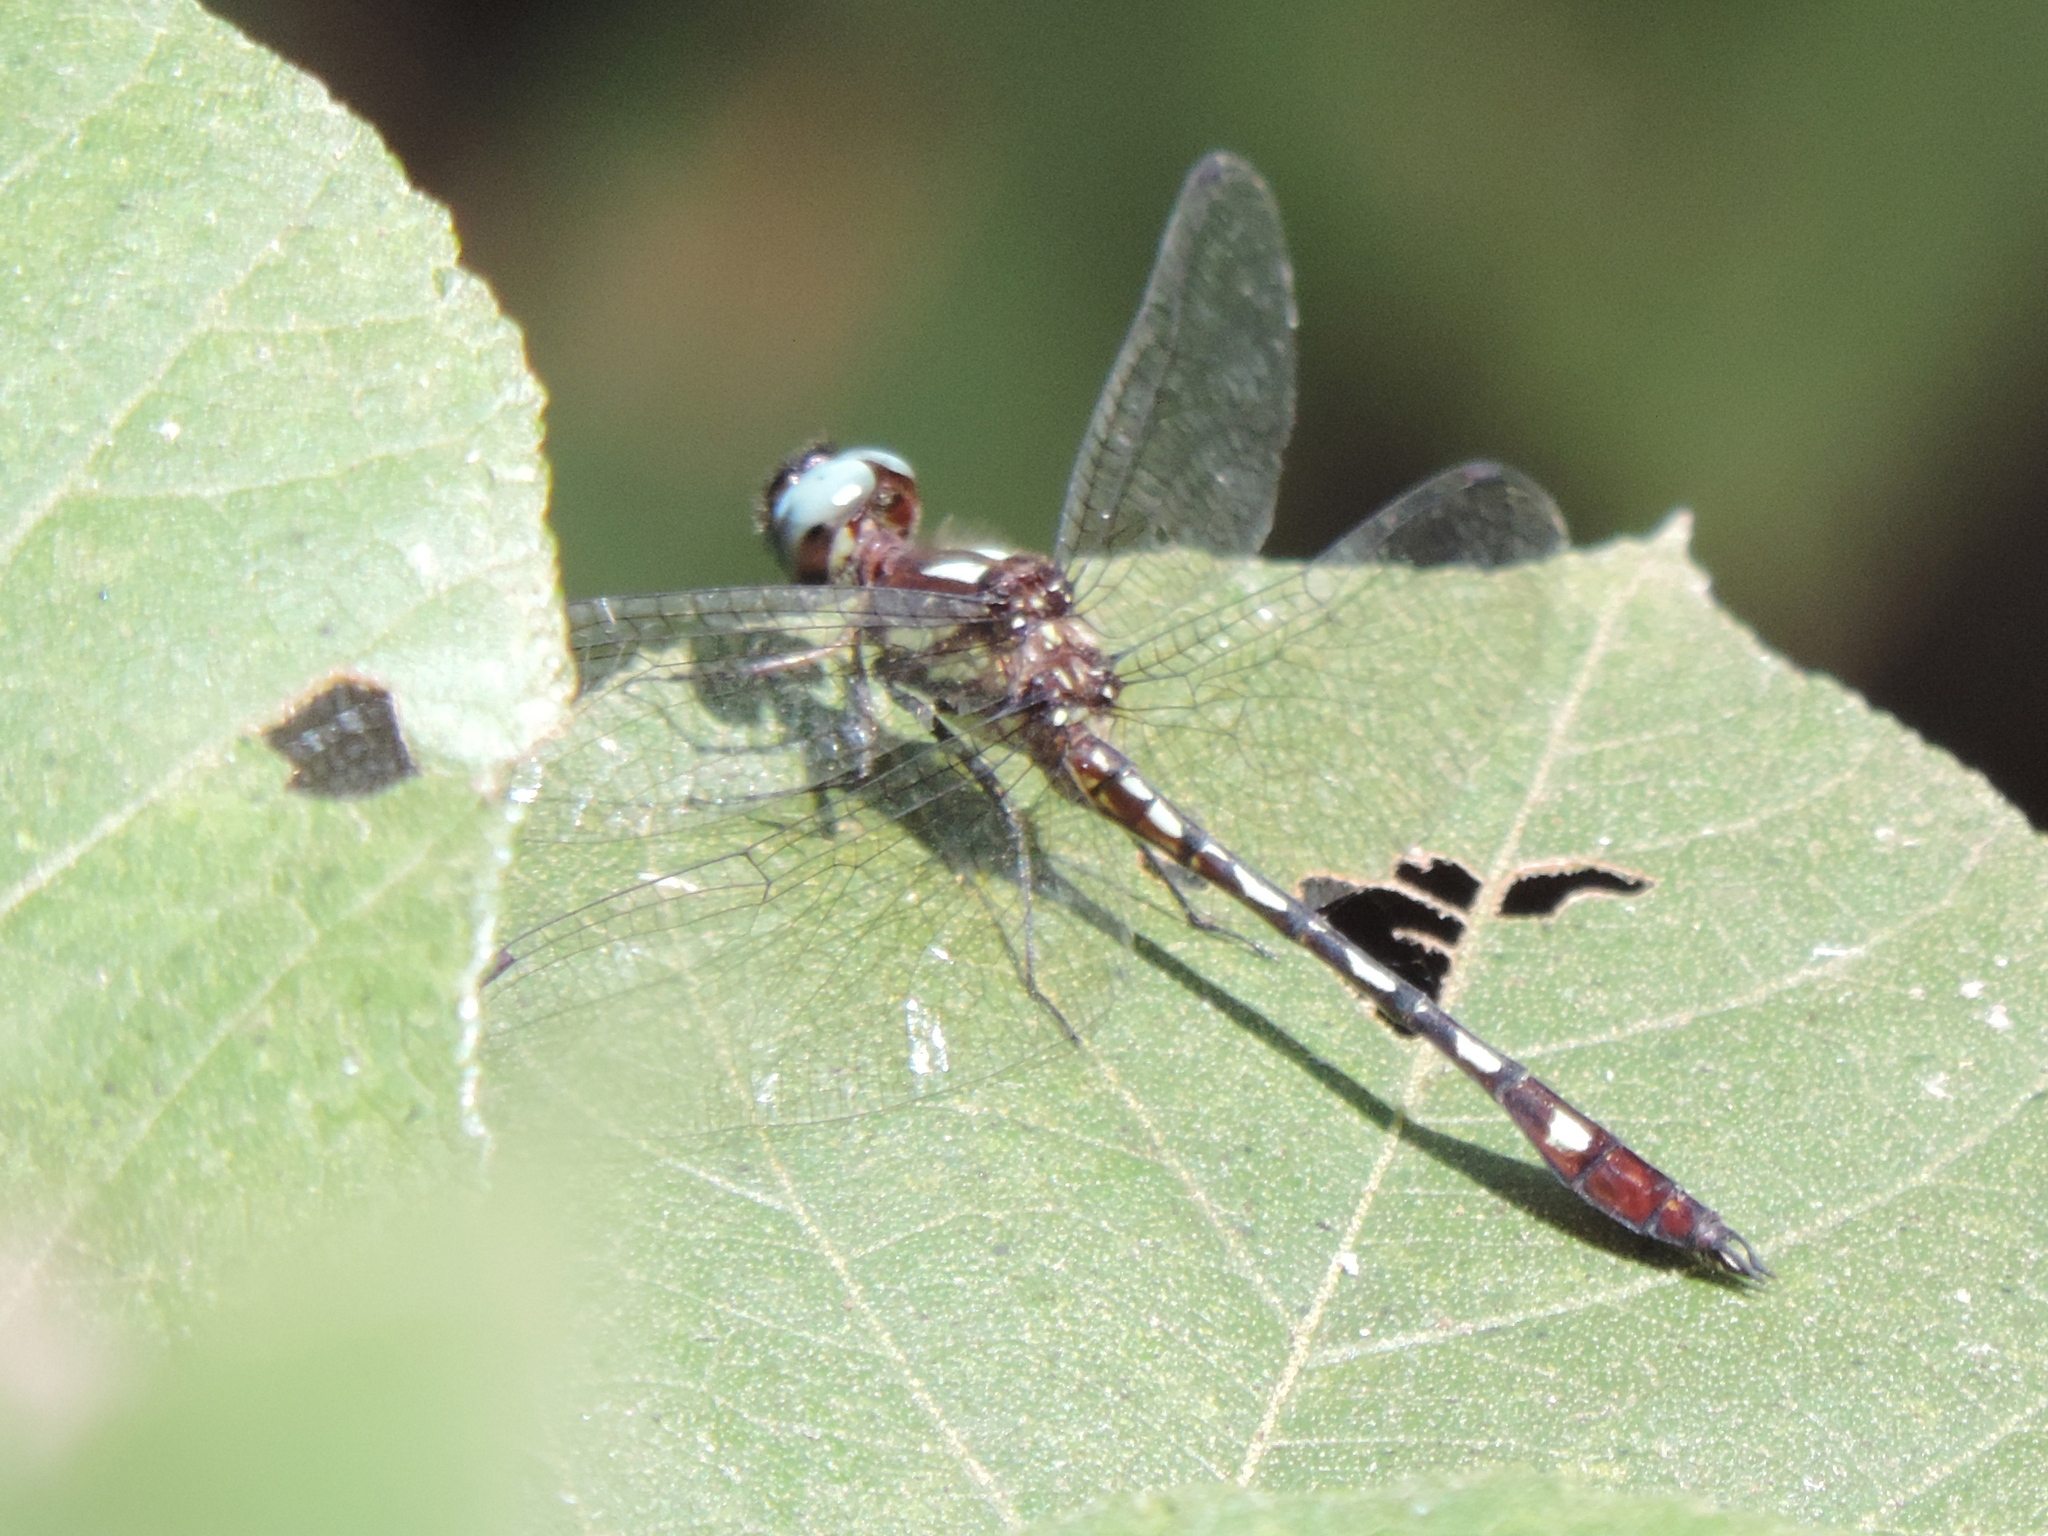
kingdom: Animalia
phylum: Arthropoda
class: Insecta
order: Odonata
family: Libellulidae
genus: Macrothemis
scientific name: Macrothemis hemichlora
